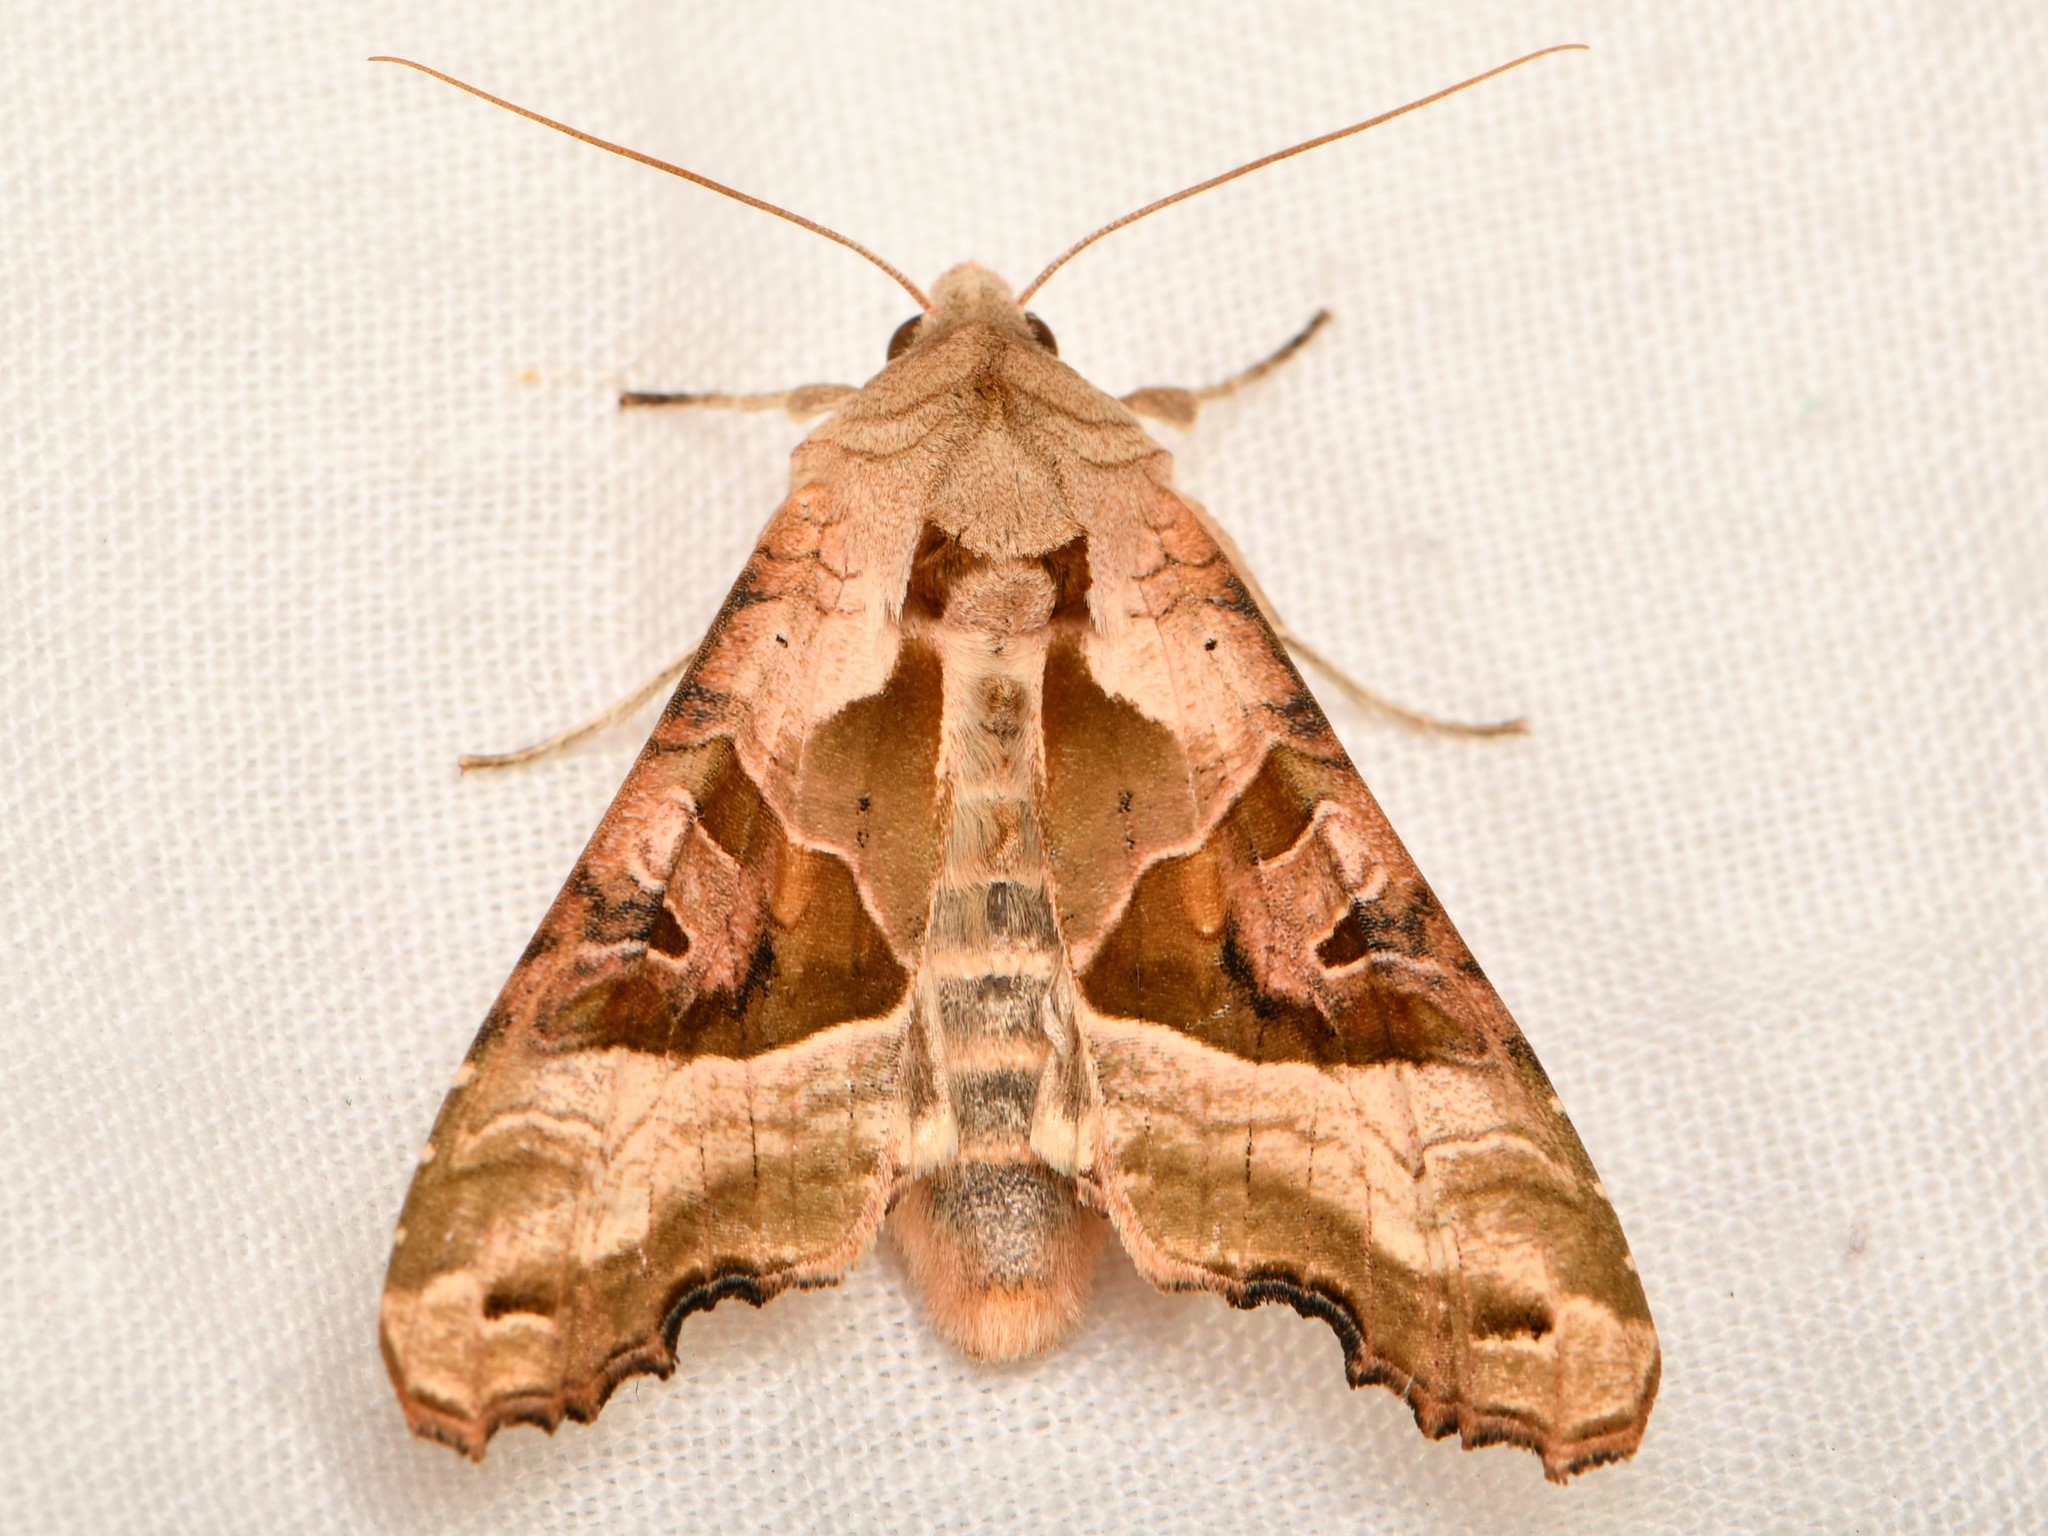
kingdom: Animalia
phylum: Arthropoda
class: Insecta
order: Lepidoptera
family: Noctuidae
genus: Phlogophora
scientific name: Phlogophora meticulosa
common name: Angle shades
